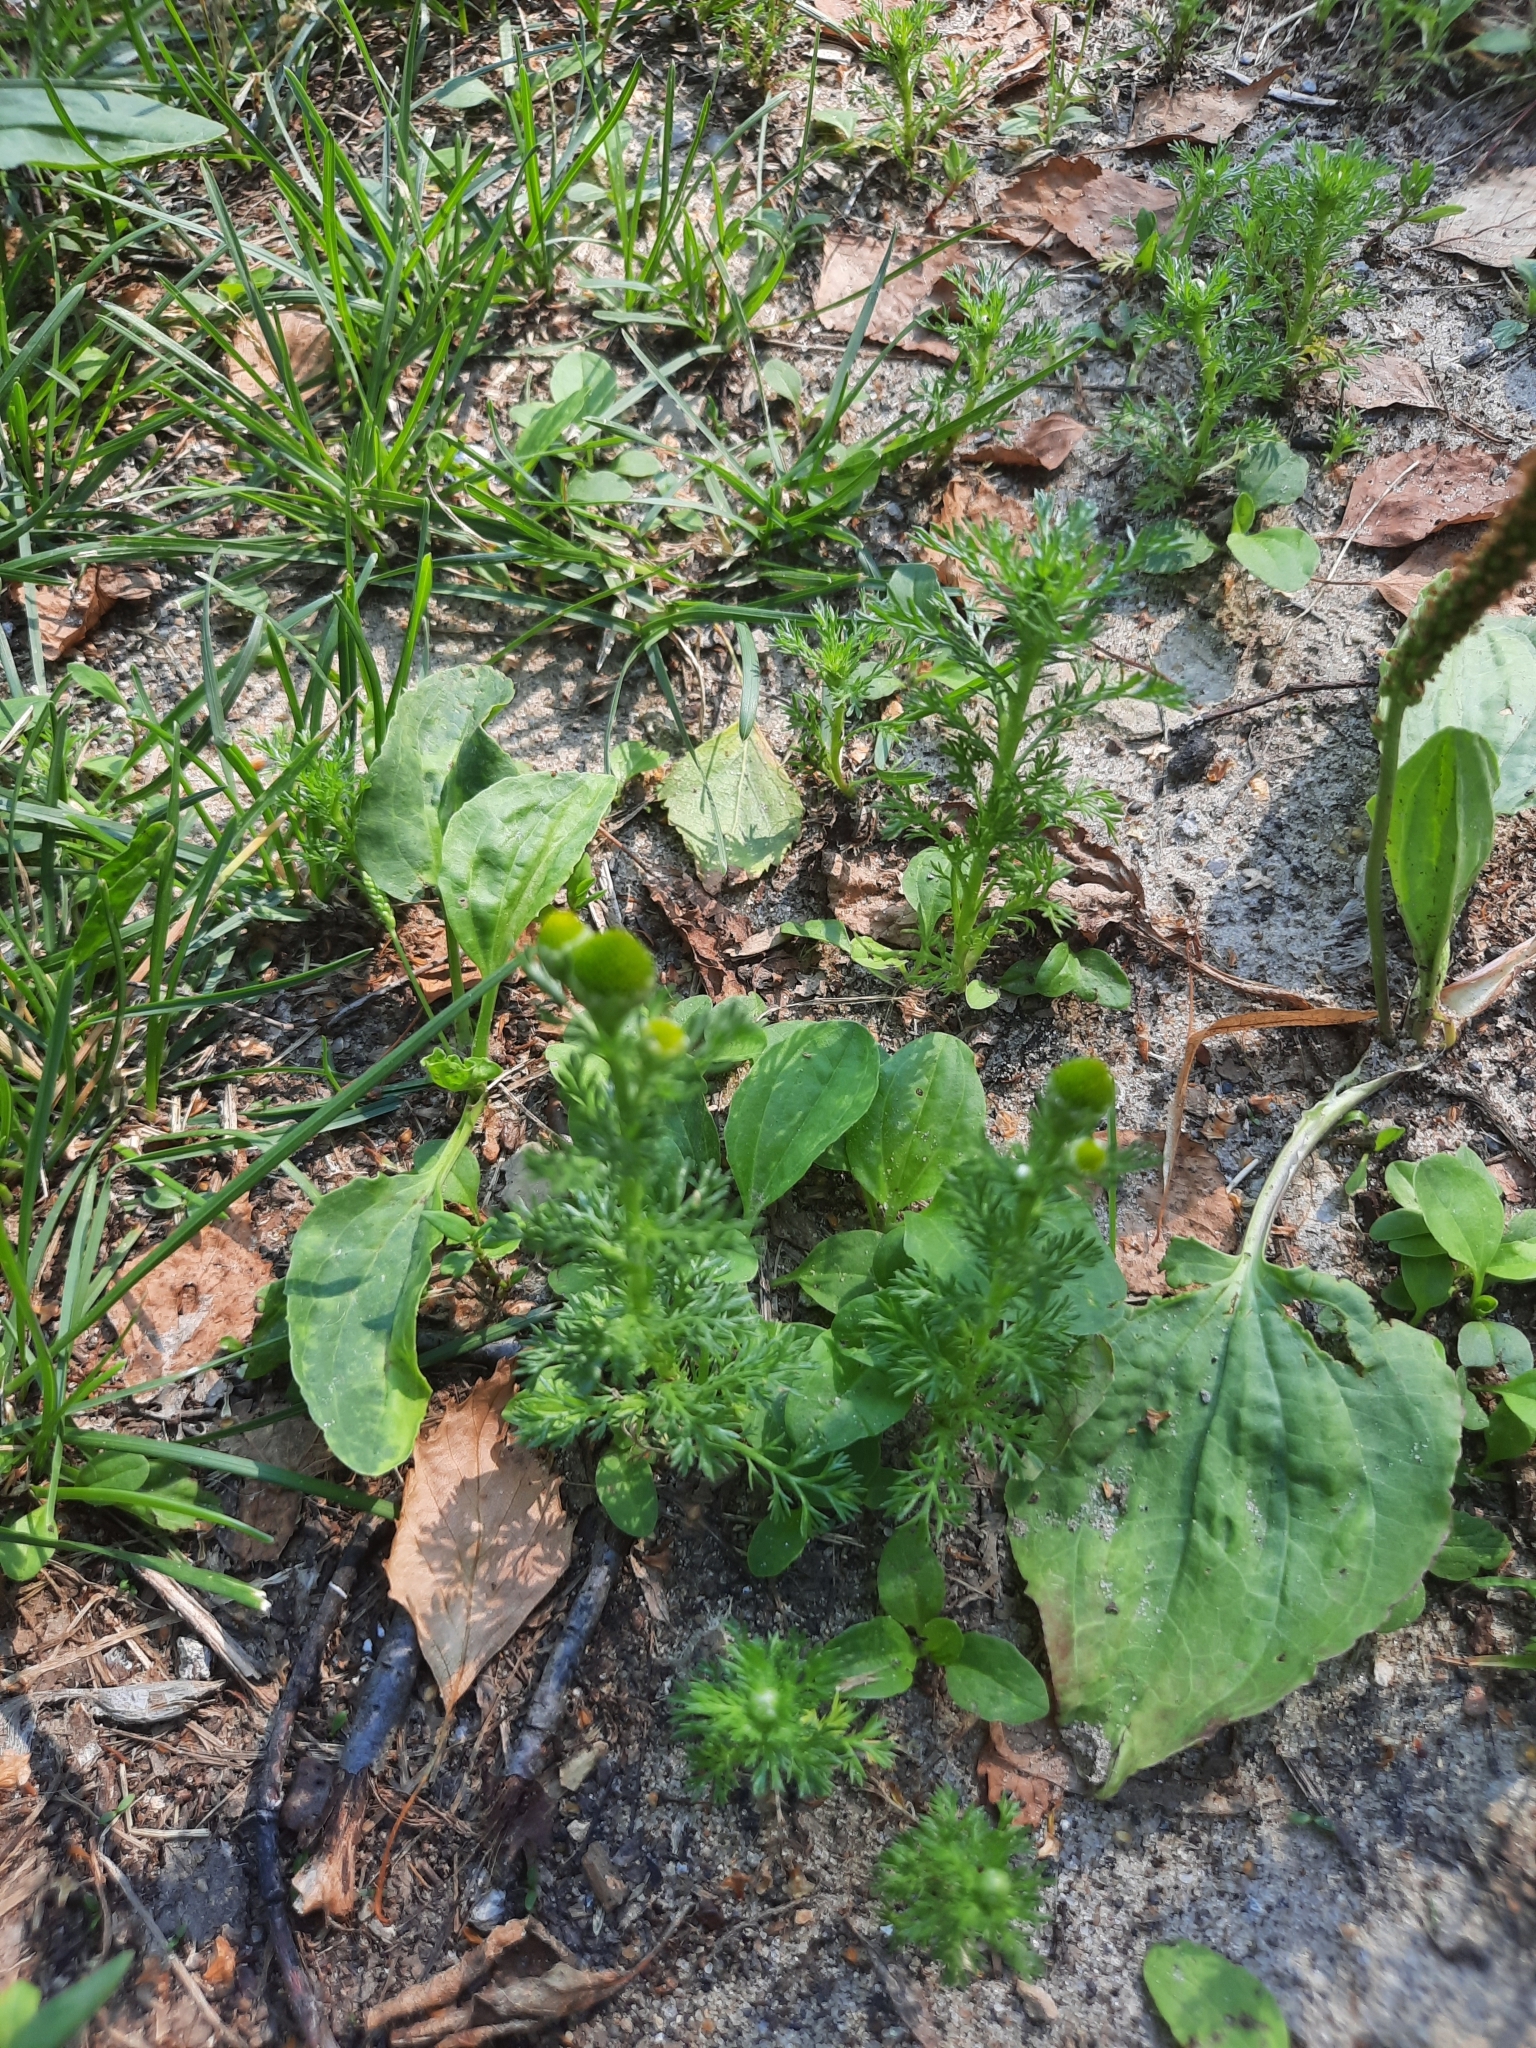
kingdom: Plantae
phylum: Tracheophyta
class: Magnoliopsida
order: Asterales
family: Asteraceae
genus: Matricaria
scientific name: Matricaria discoidea
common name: Disc mayweed
